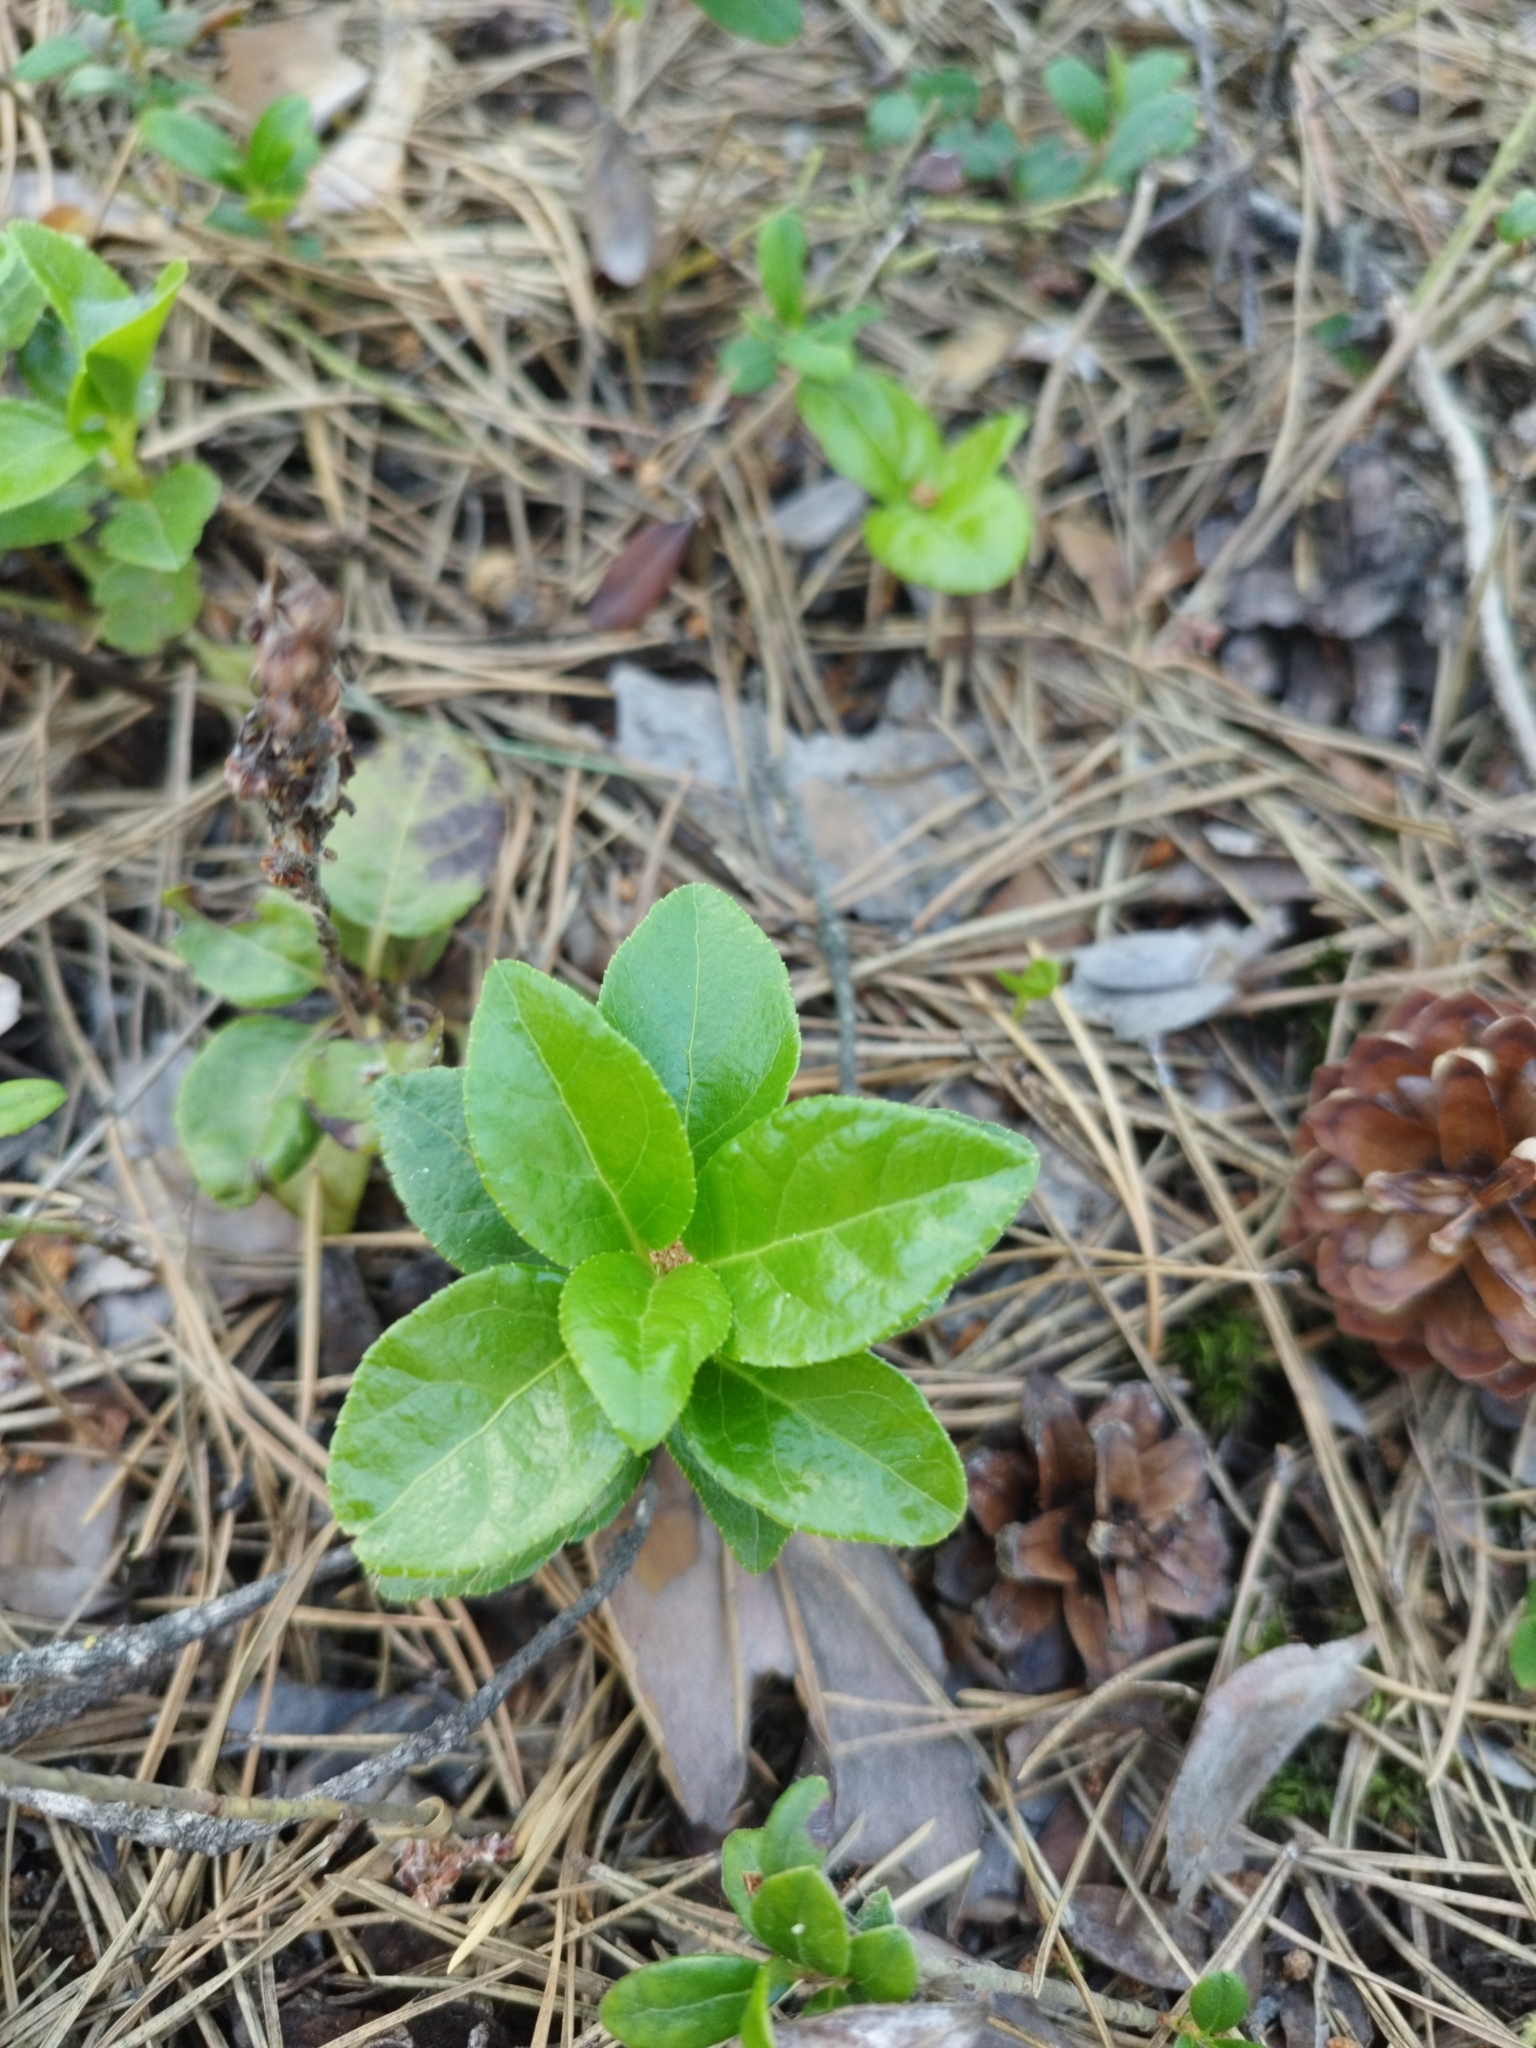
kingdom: Plantae
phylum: Tracheophyta
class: Magnoliopsida
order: Ericales
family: Ericaceae
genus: Orthilia
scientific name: Orthilia secunda
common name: One-sided orthilia
